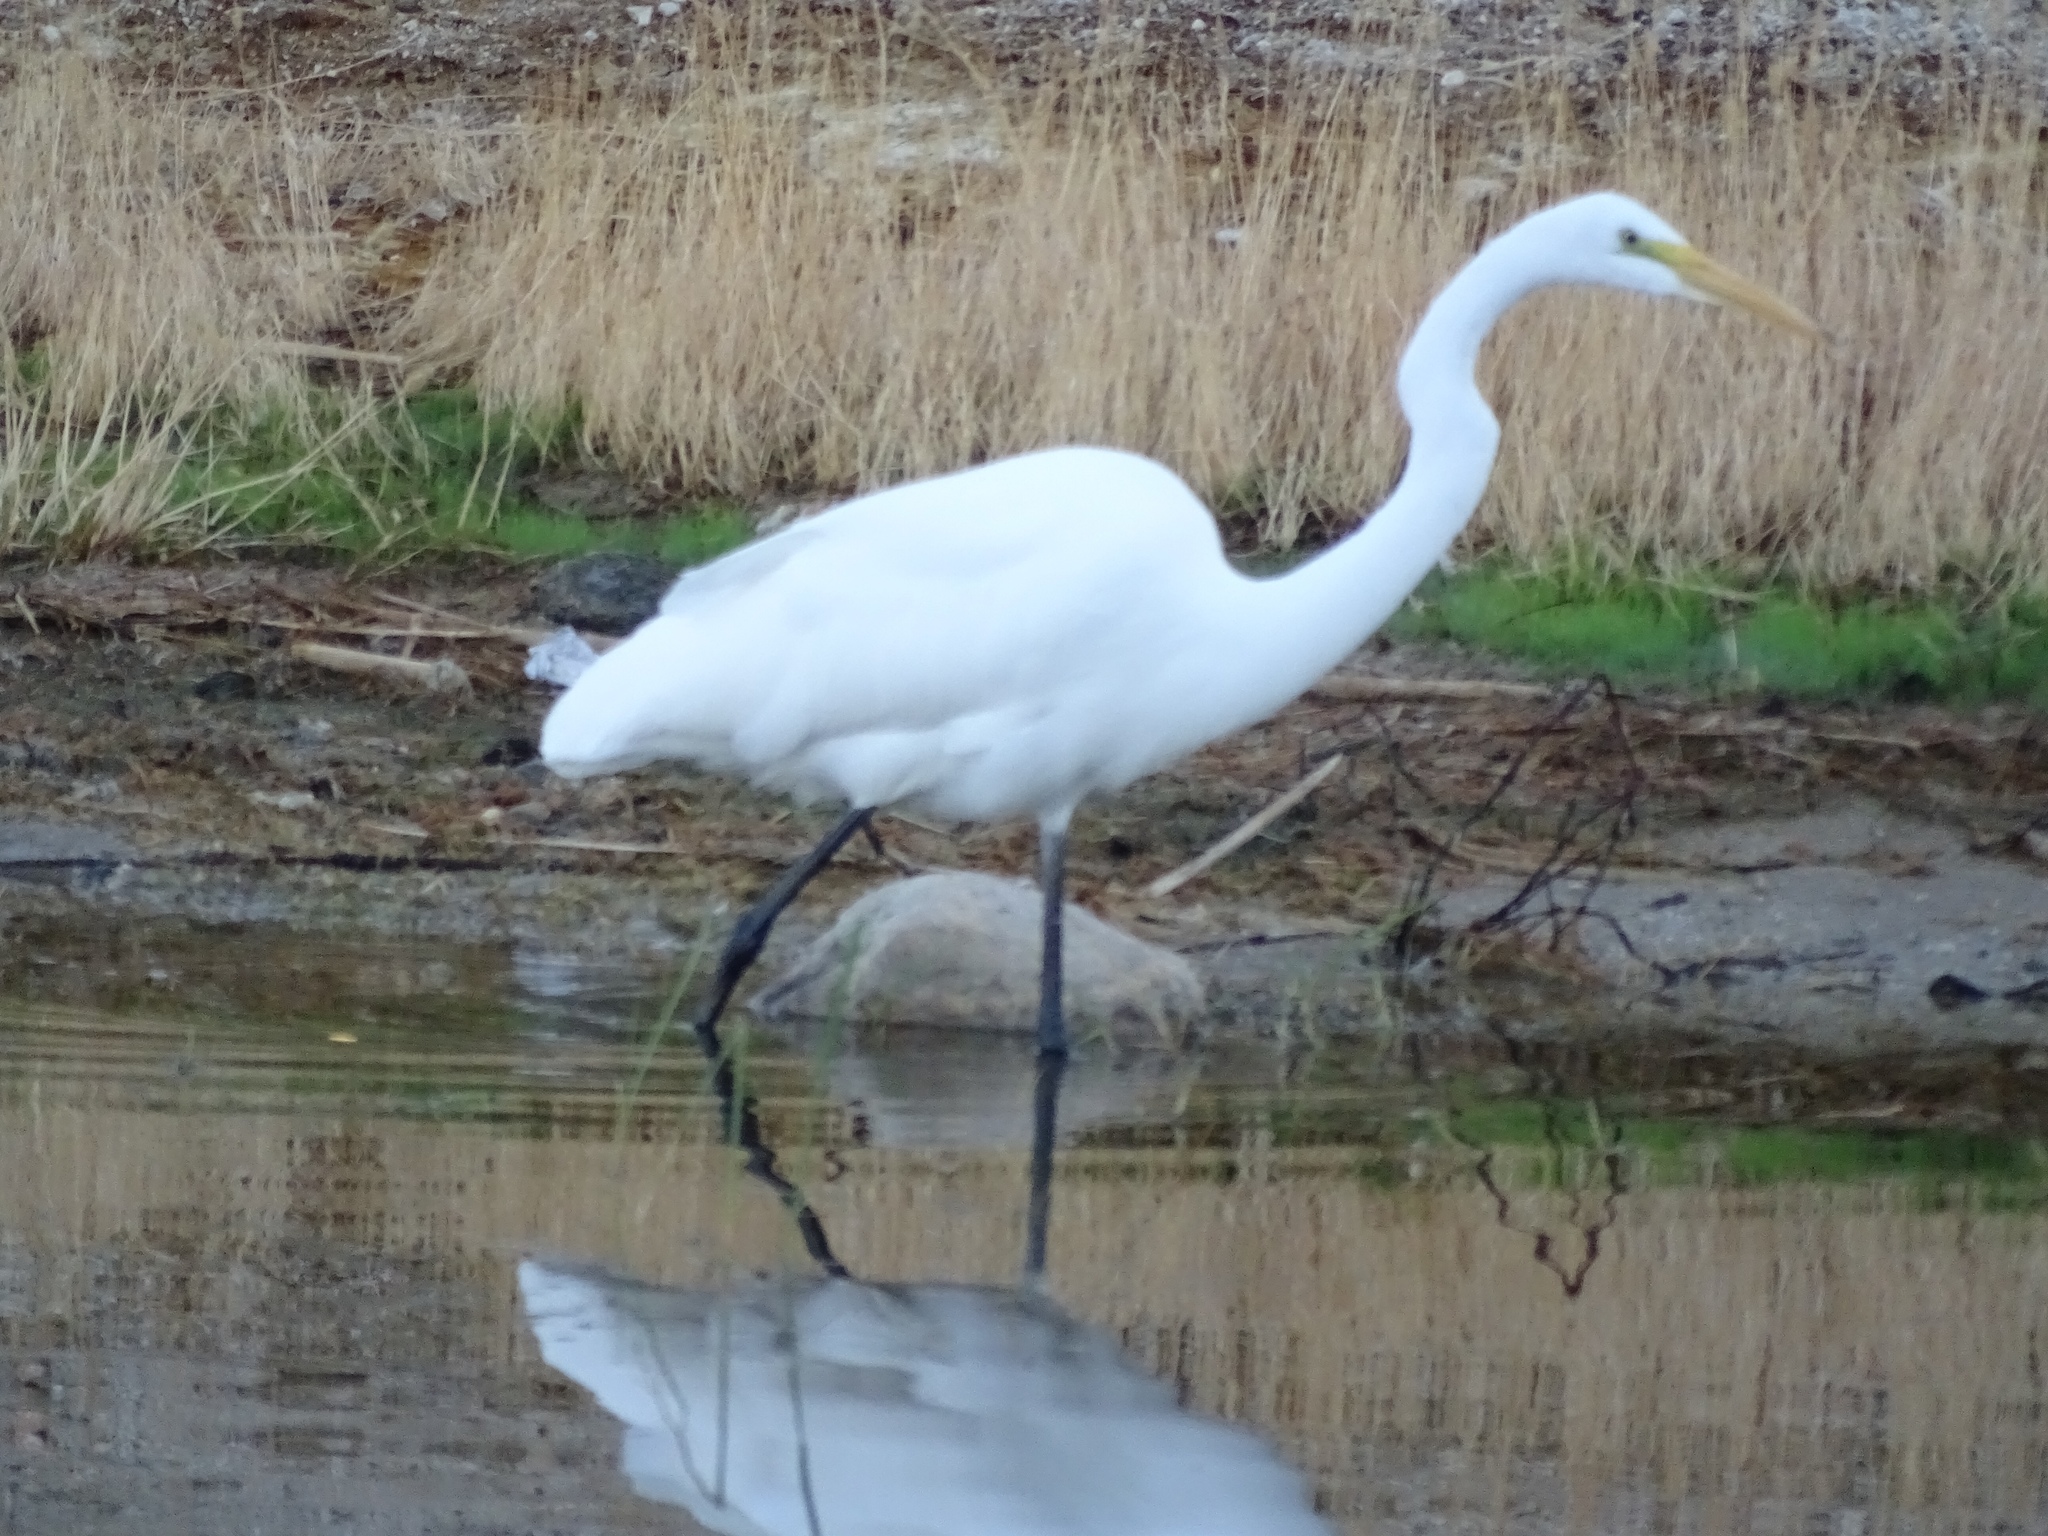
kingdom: Animalia
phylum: Chordata
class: Aves
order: Pelecaniformes
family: Ardeidae
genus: Ardea
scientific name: Ardea alba
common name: Great egret
